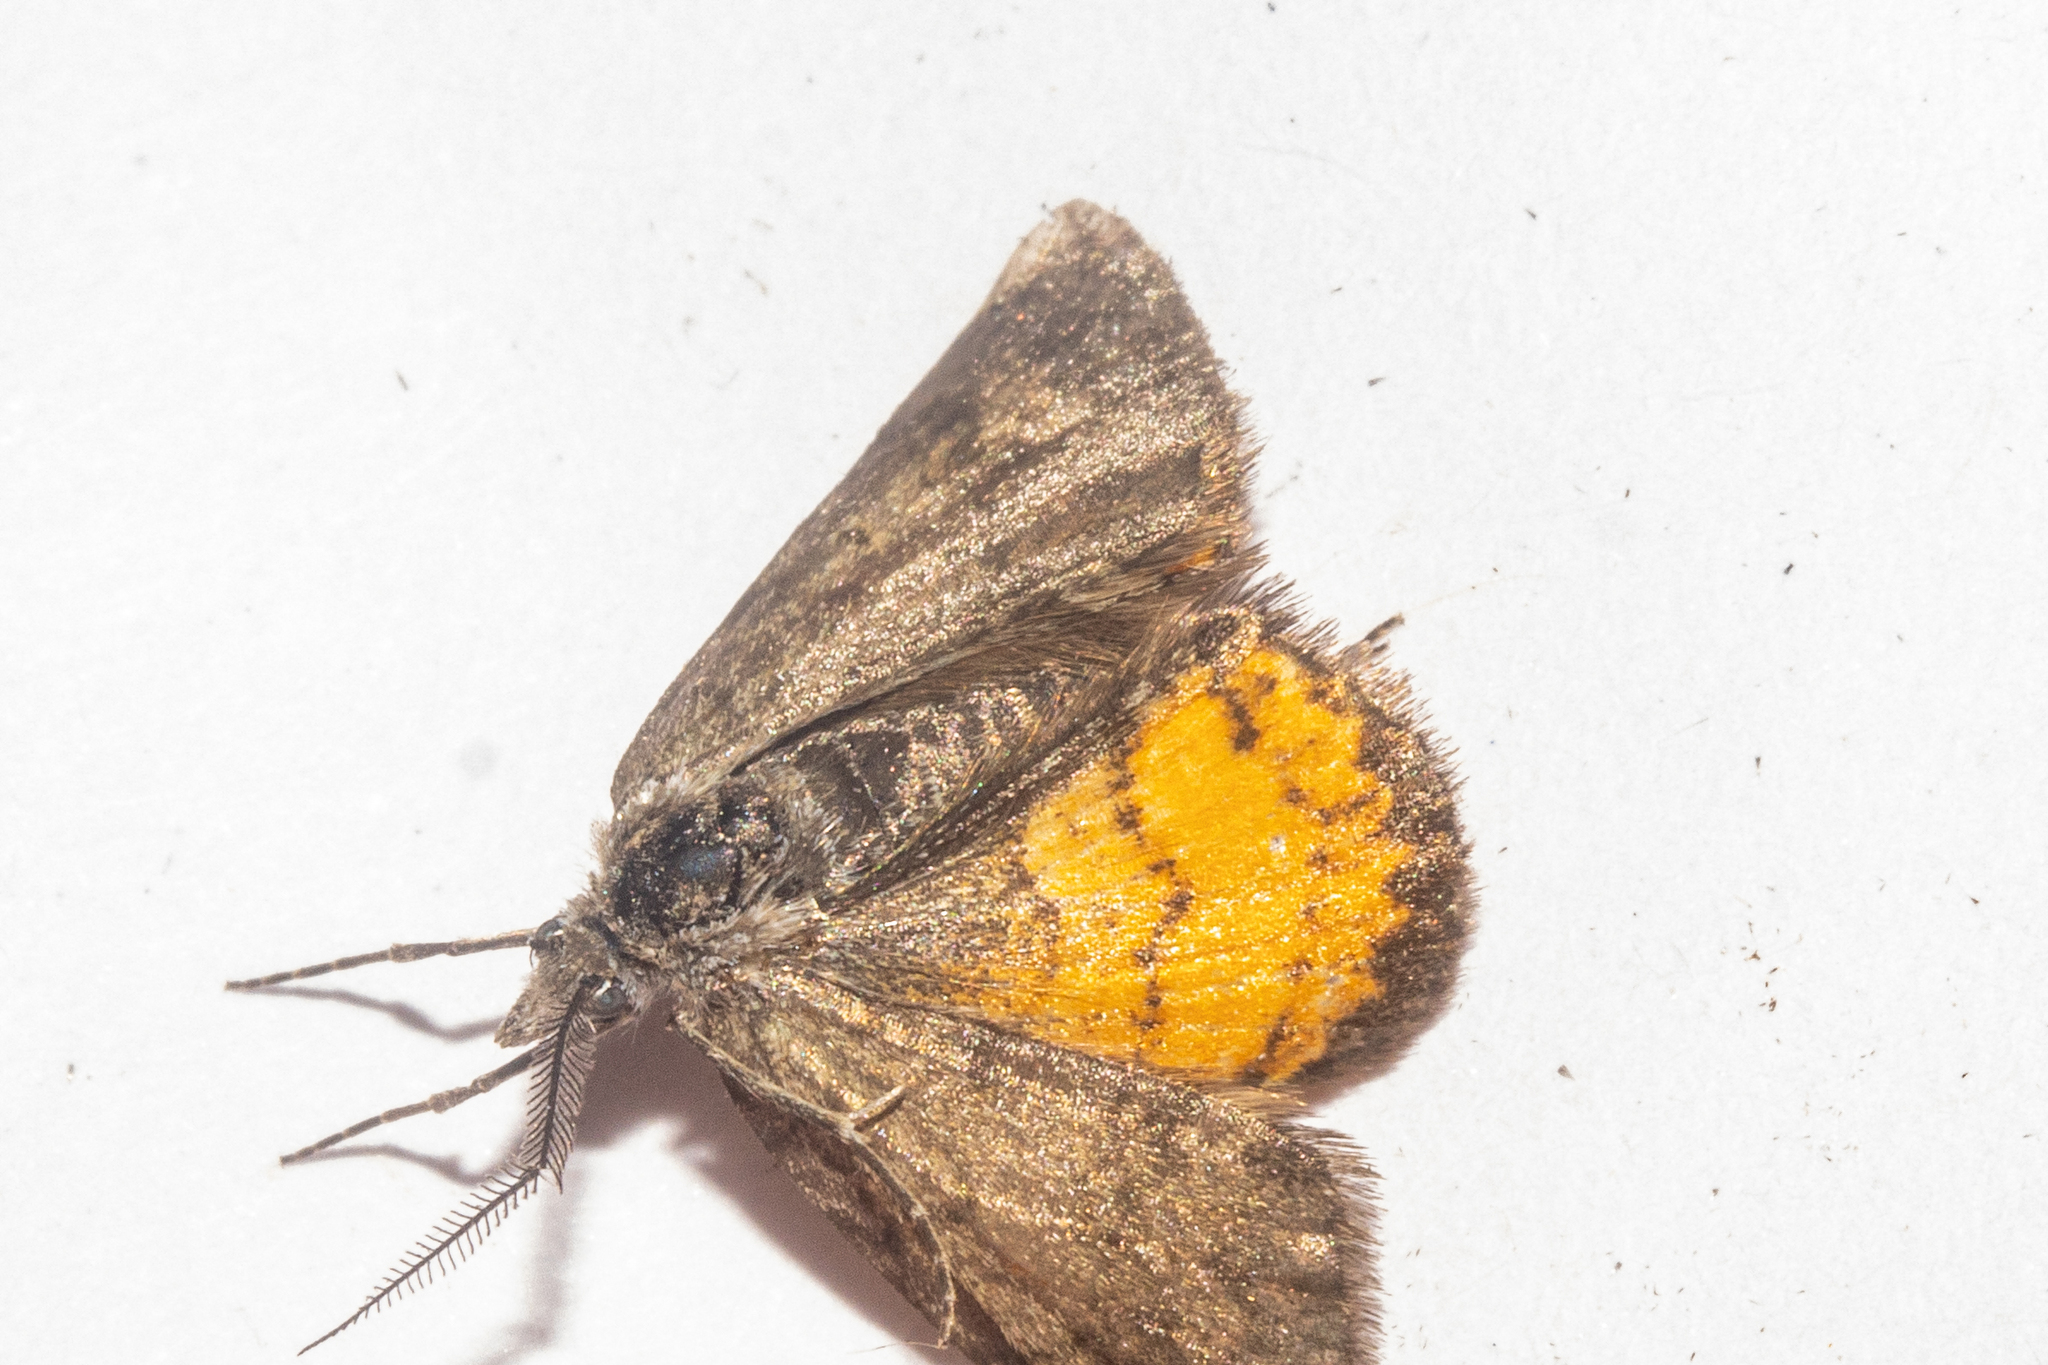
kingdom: Animalia
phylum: Arthropoda
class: Insecta
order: Lepidoptera
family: Geometridae
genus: Paranotoreas
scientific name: Paranotoreas brephosata
